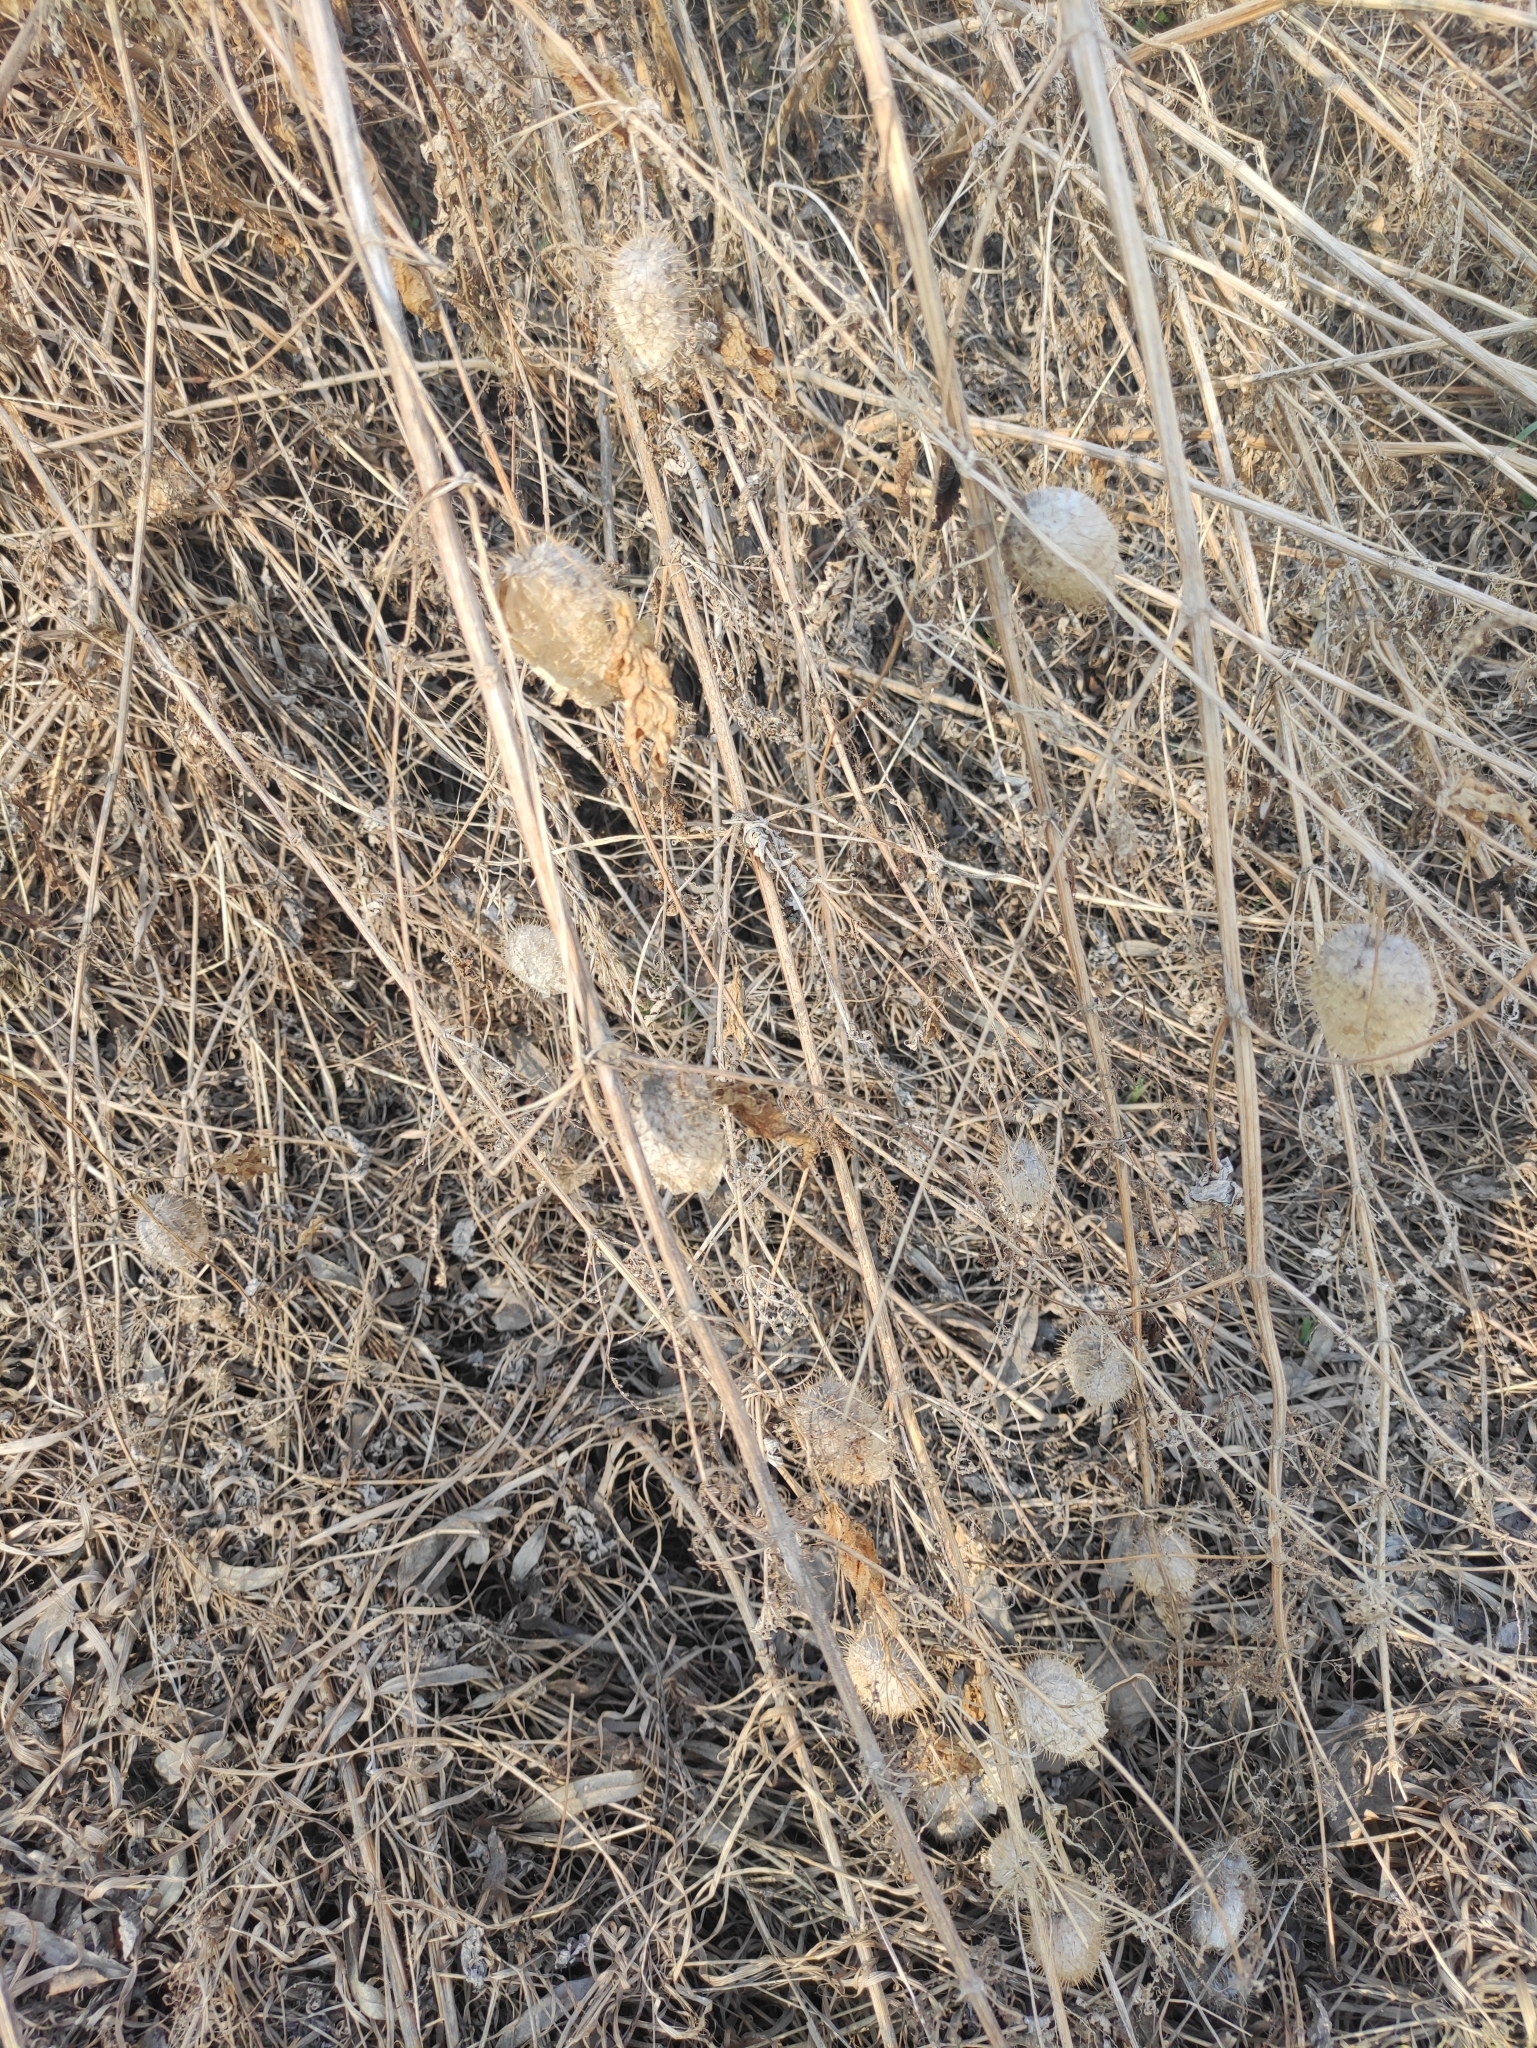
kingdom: Plantae
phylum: Tracheophyta
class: Magnoliopsida
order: Cucurbitales
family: Cucurbitaceae
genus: Echinocystis
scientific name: Echinocystis lobata
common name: Wild cucumber
